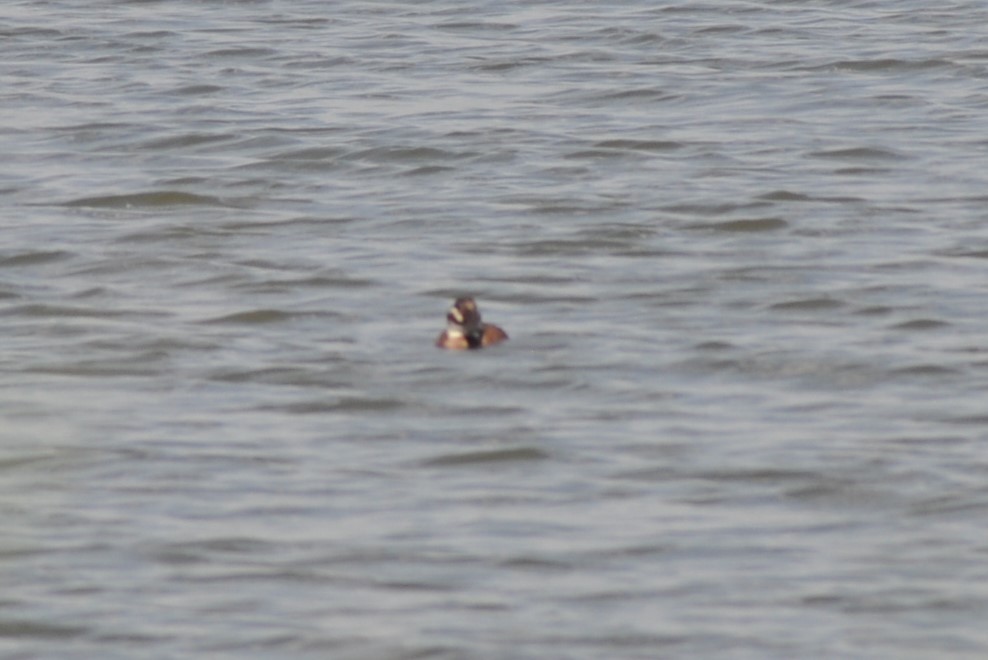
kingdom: Animalia
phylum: Chordata
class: Aves
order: Anseriformes
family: Anatidae
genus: Oxyura
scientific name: Oxyura leucocephala
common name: White-headed duck
